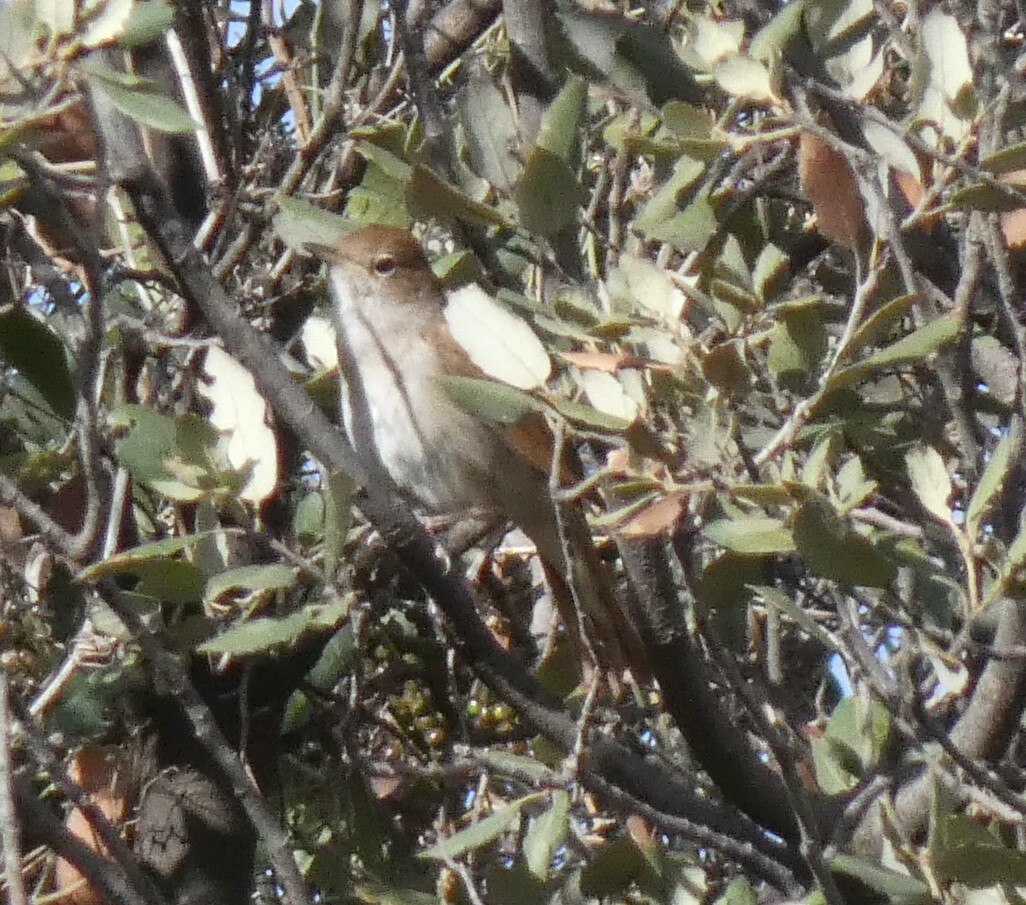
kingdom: Animalia
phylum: Chordata
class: Aves
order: Passeriformes
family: Muscicapidae
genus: Luscinia
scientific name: Luscinia megarhynchos
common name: Common nightingale
